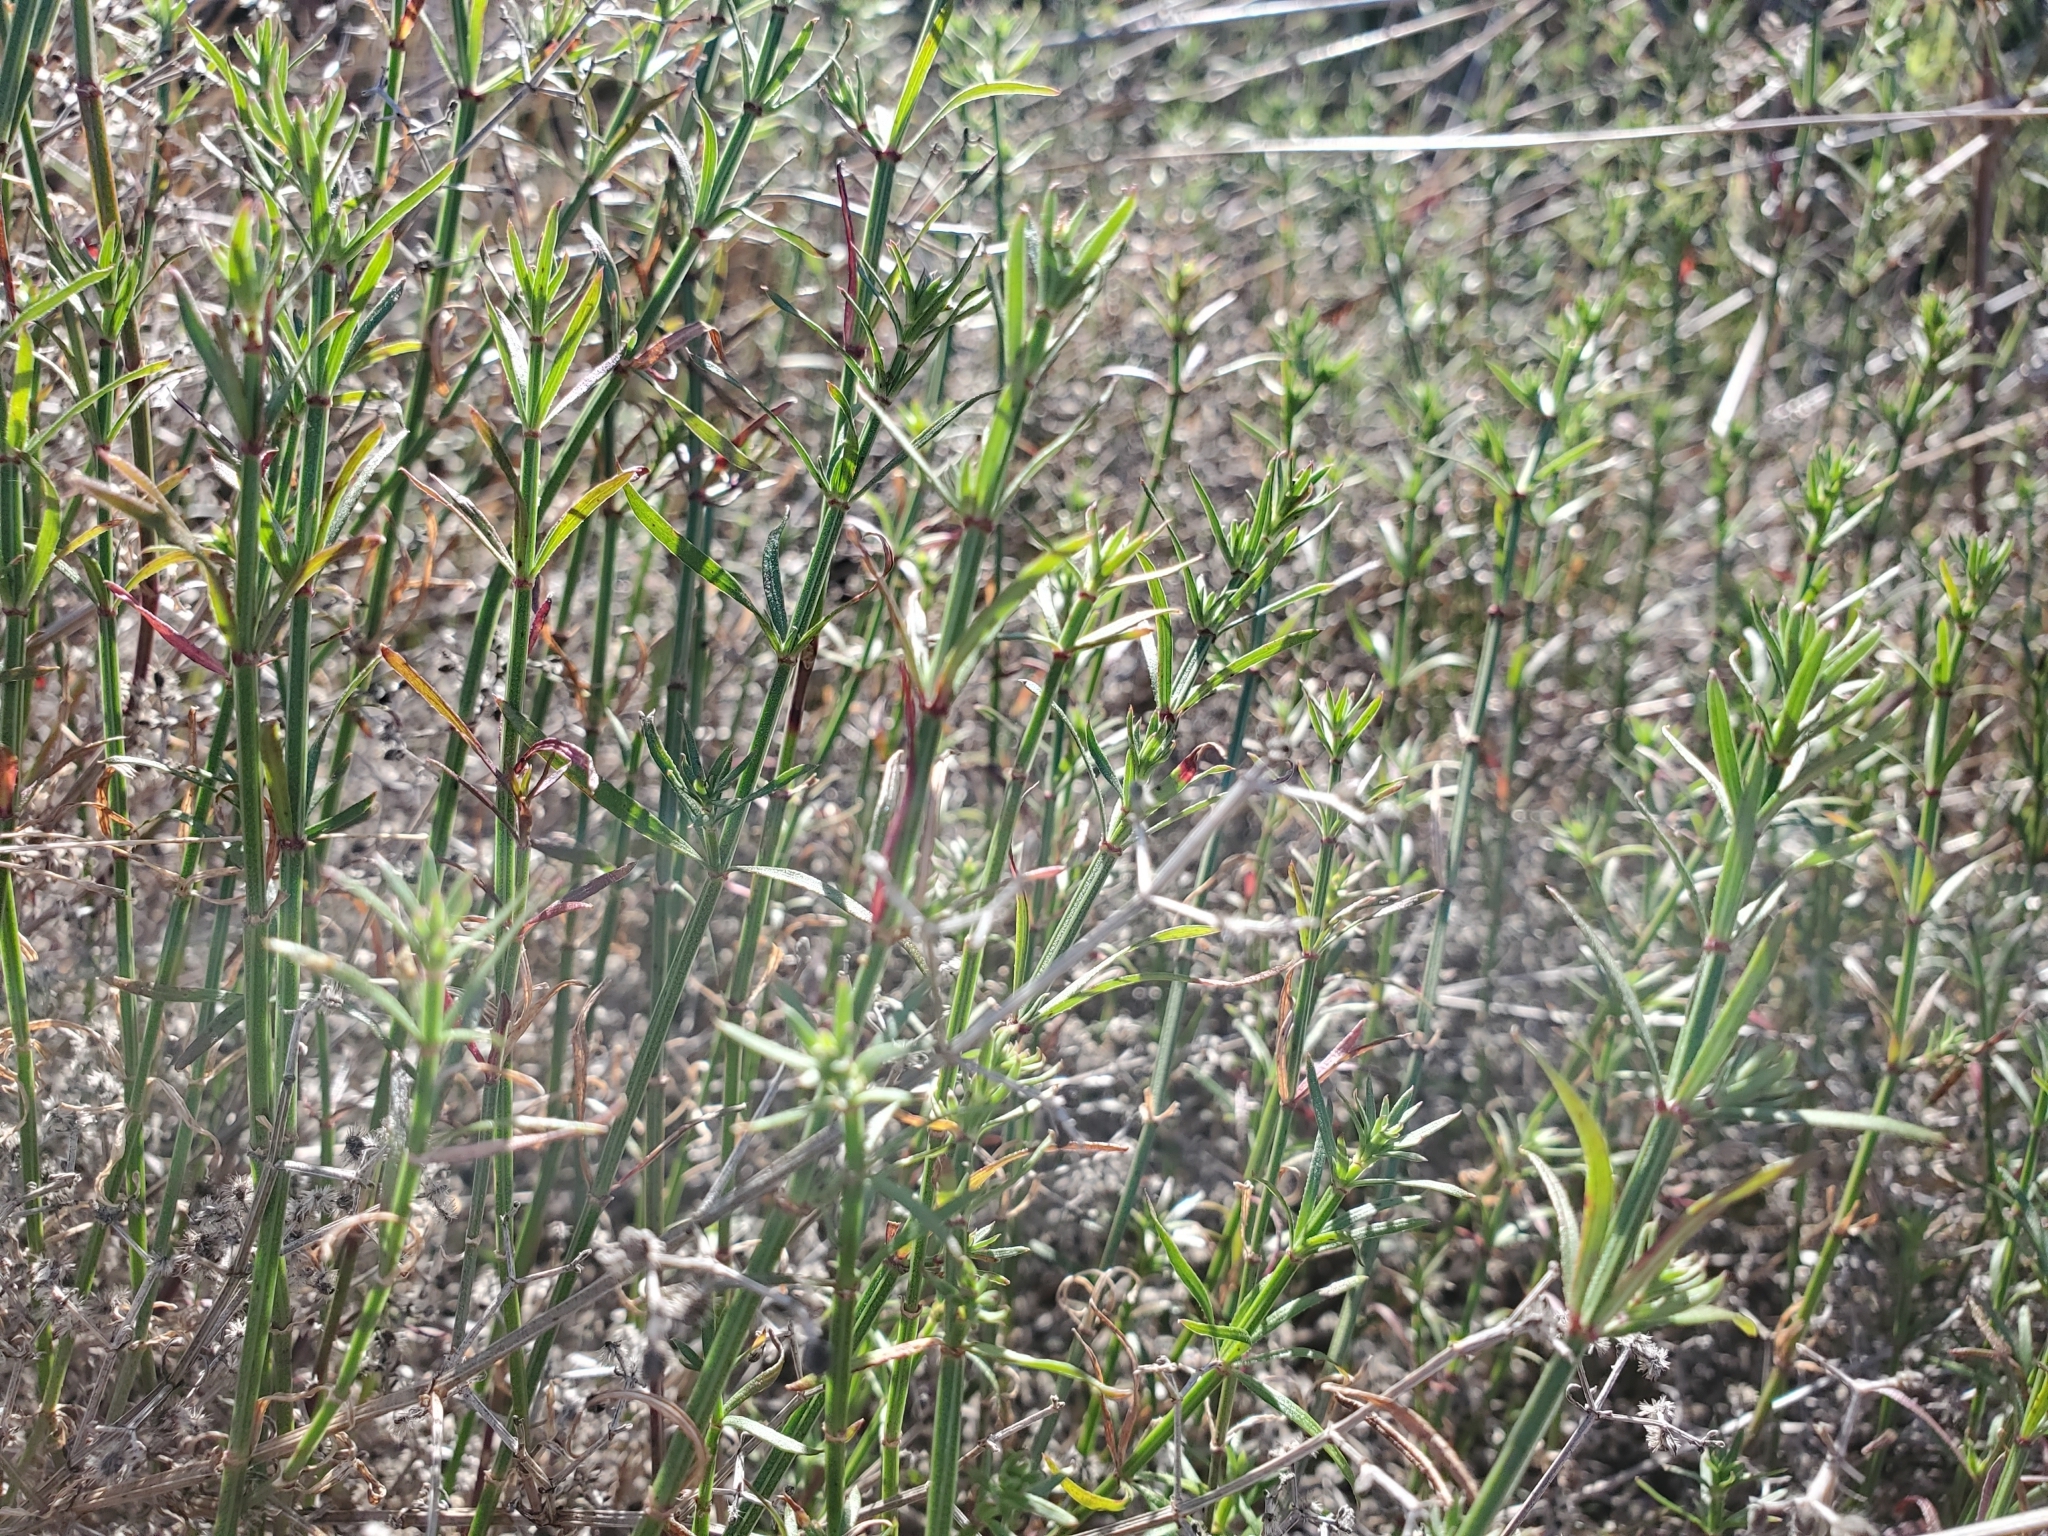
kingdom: Plantae
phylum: Tracheophyta
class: Magnoliopsida
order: Gentianales
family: Rubiaceae
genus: Galium
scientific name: Galium angustifolium
